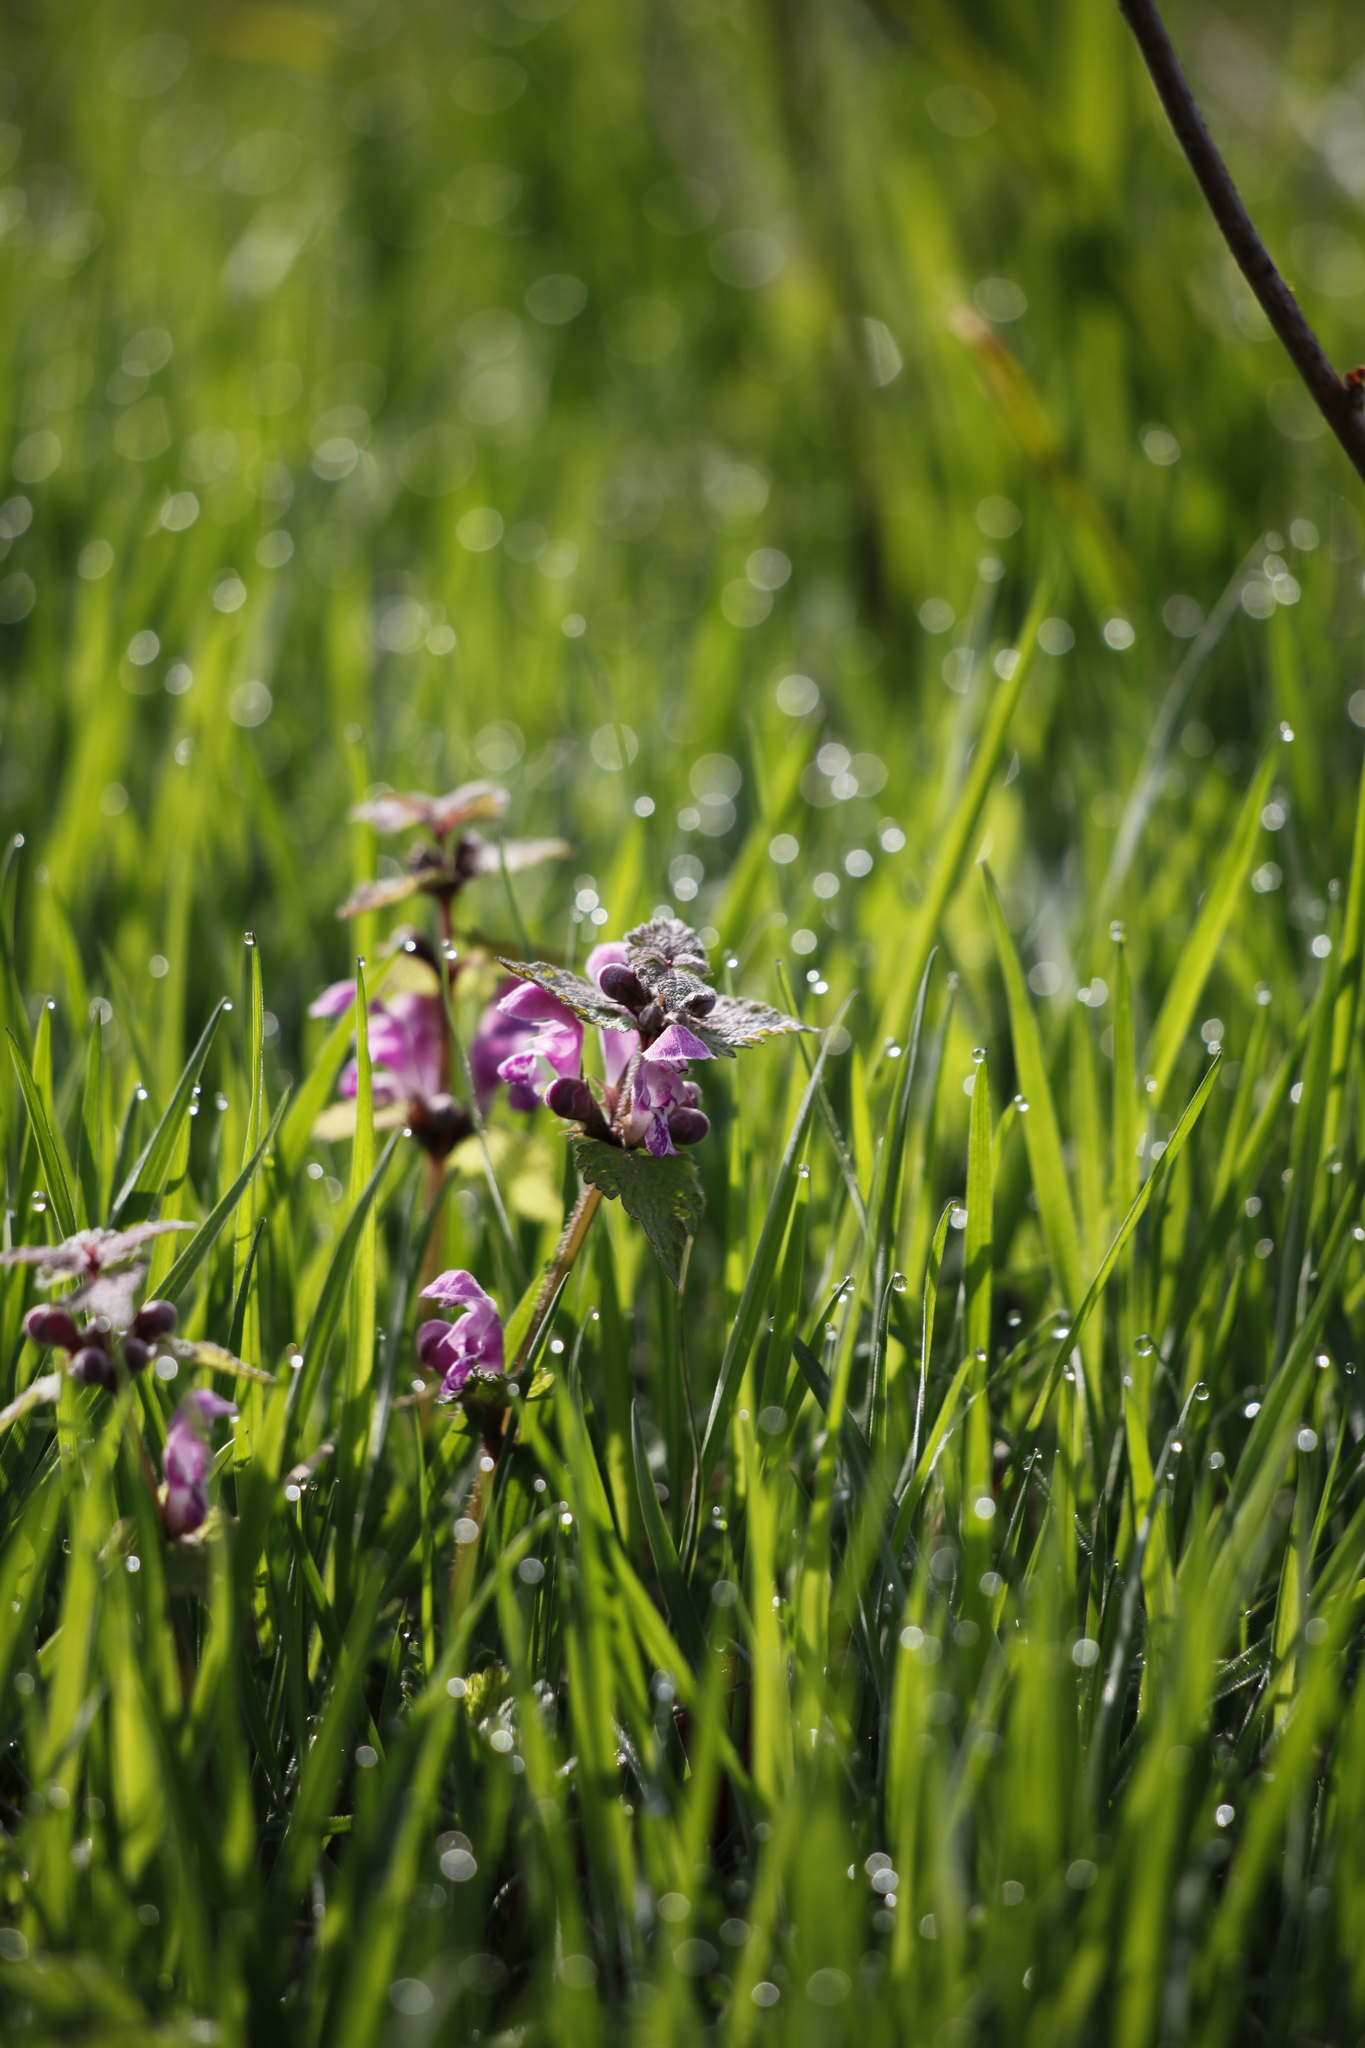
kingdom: Plantae
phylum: Tracheophyta
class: Magnoliopsida
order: Lamiales
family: Lamiaceae
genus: Lamium
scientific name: Lamium maculatum
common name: Spotted dead-nettle
